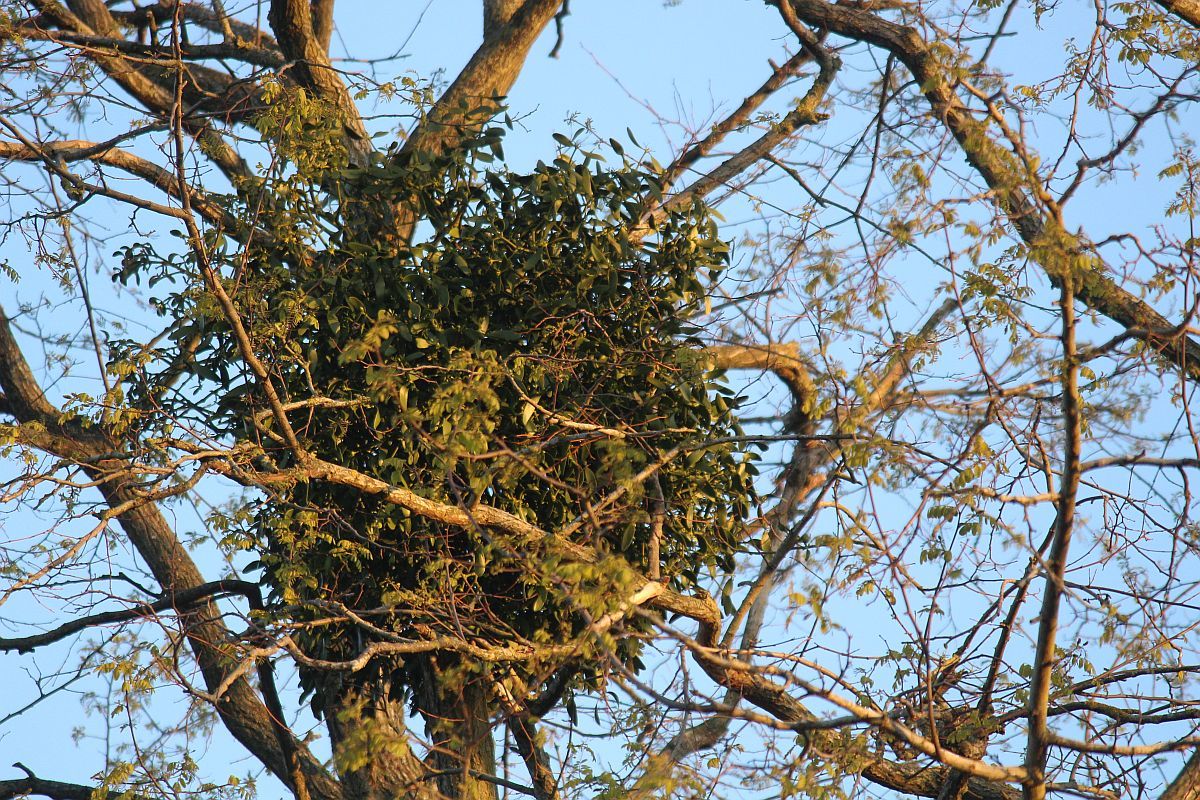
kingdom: Plantae
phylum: Tracheophyta
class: Magnoliopsida
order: Santalales
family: Viscaceae
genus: Viscum
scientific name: Viscum album
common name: Mistletoe
